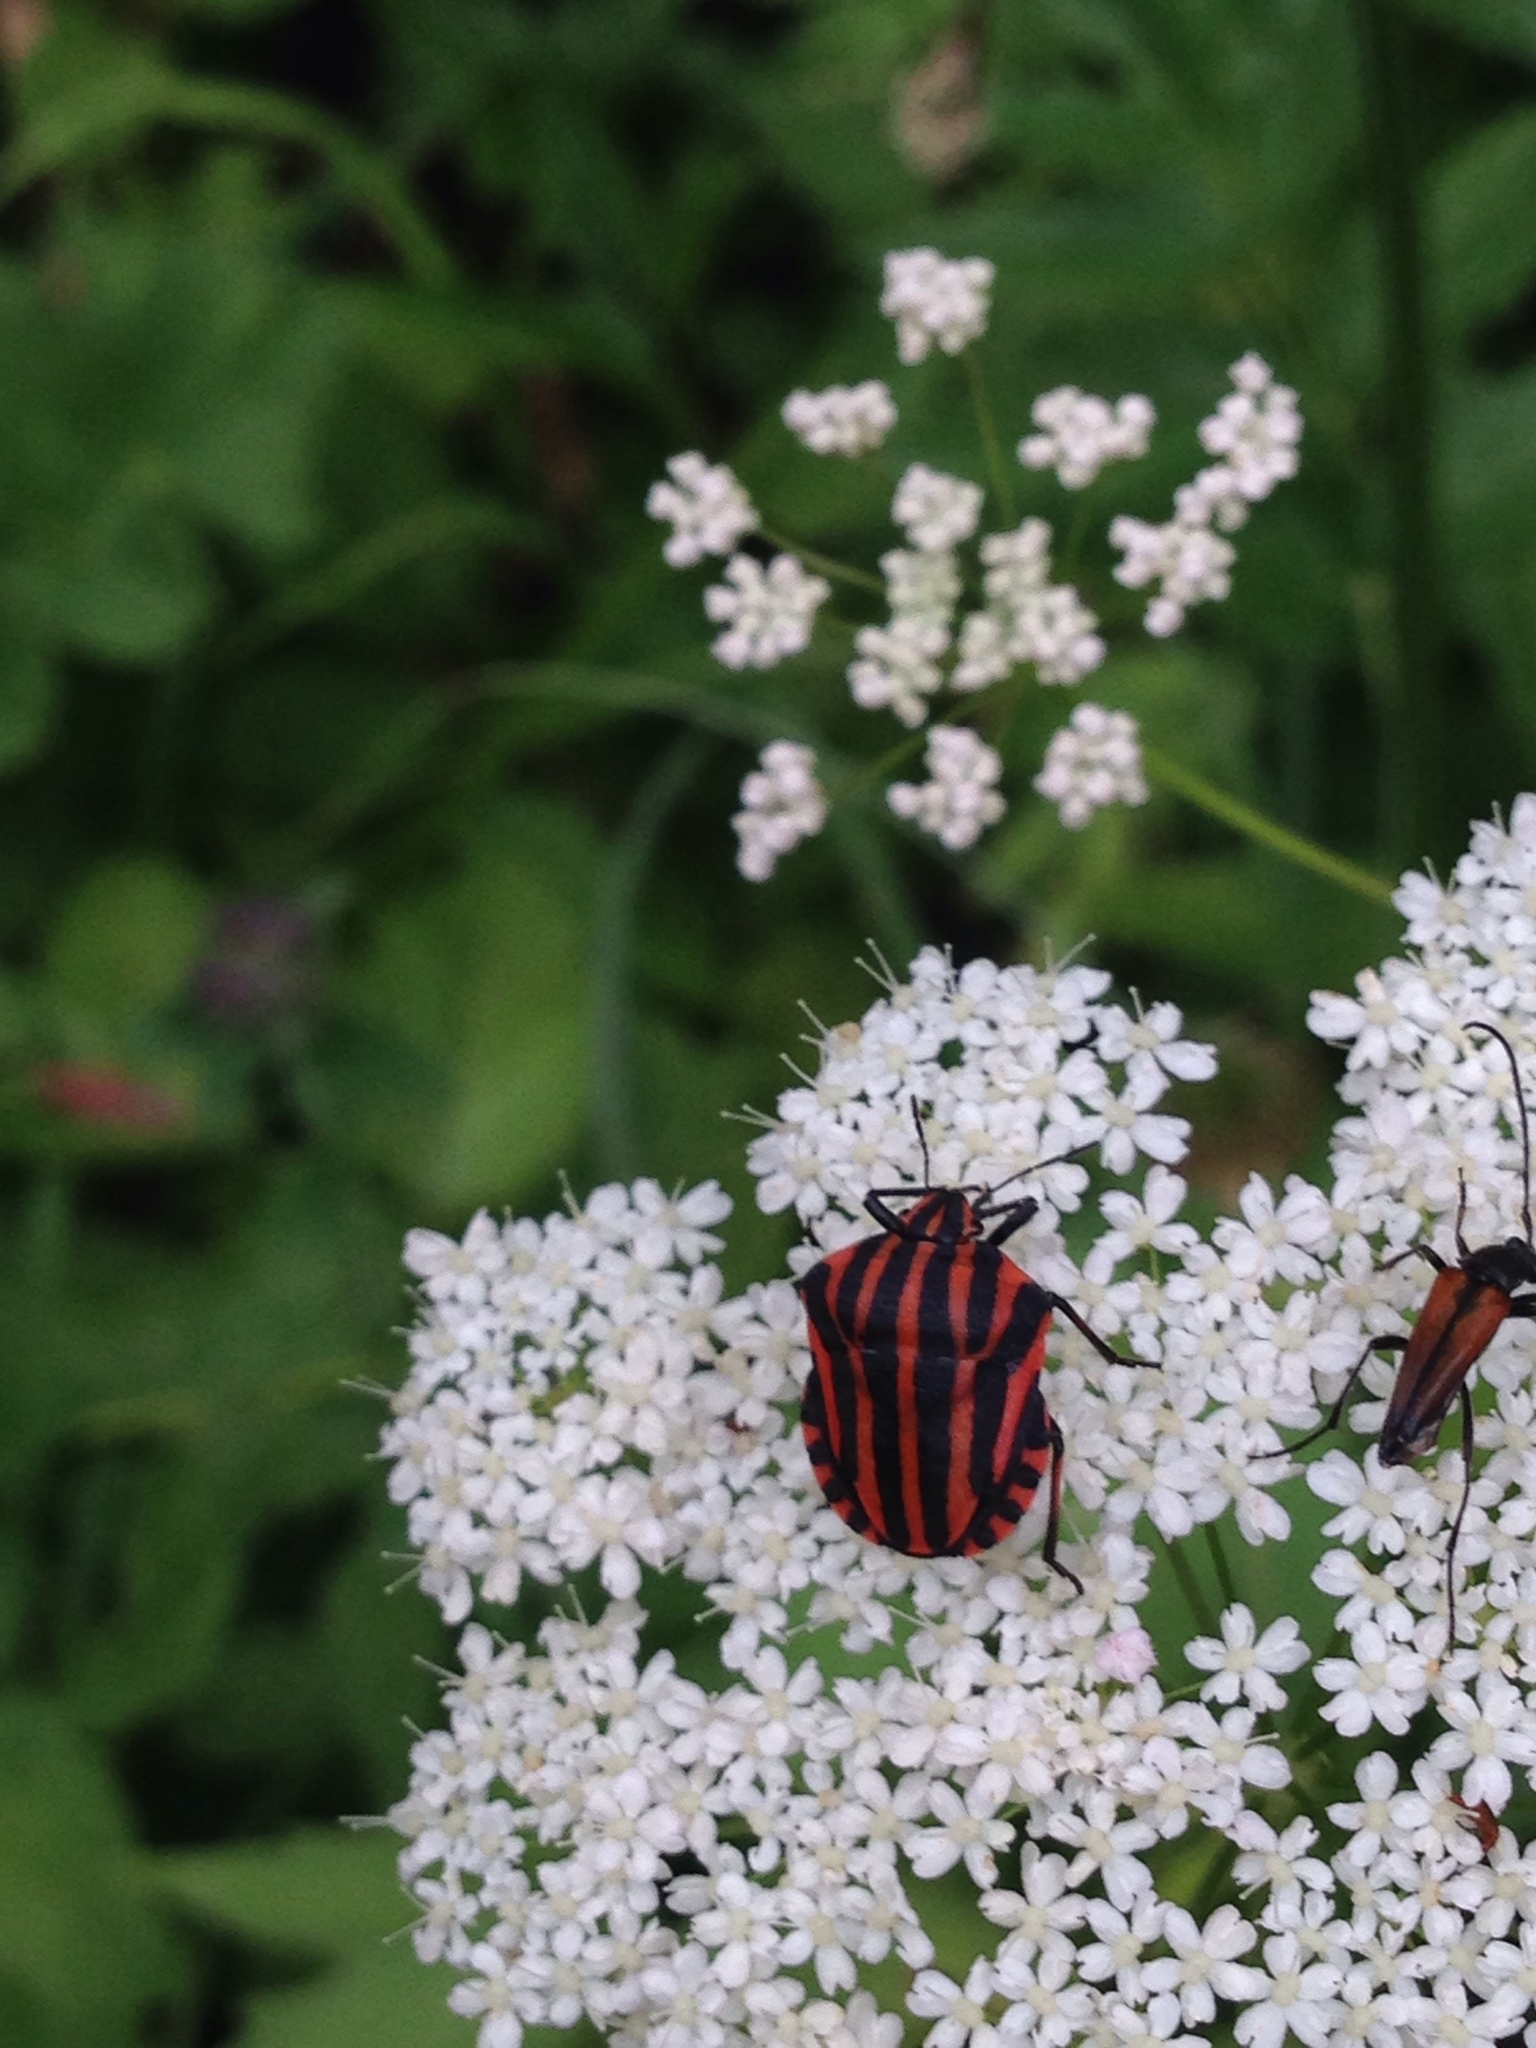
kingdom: Animalia
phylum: Arthropoda
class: Insecta
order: Hemiptera
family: Pentatomidae
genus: Graphosoma
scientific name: Graphosoma italicum
